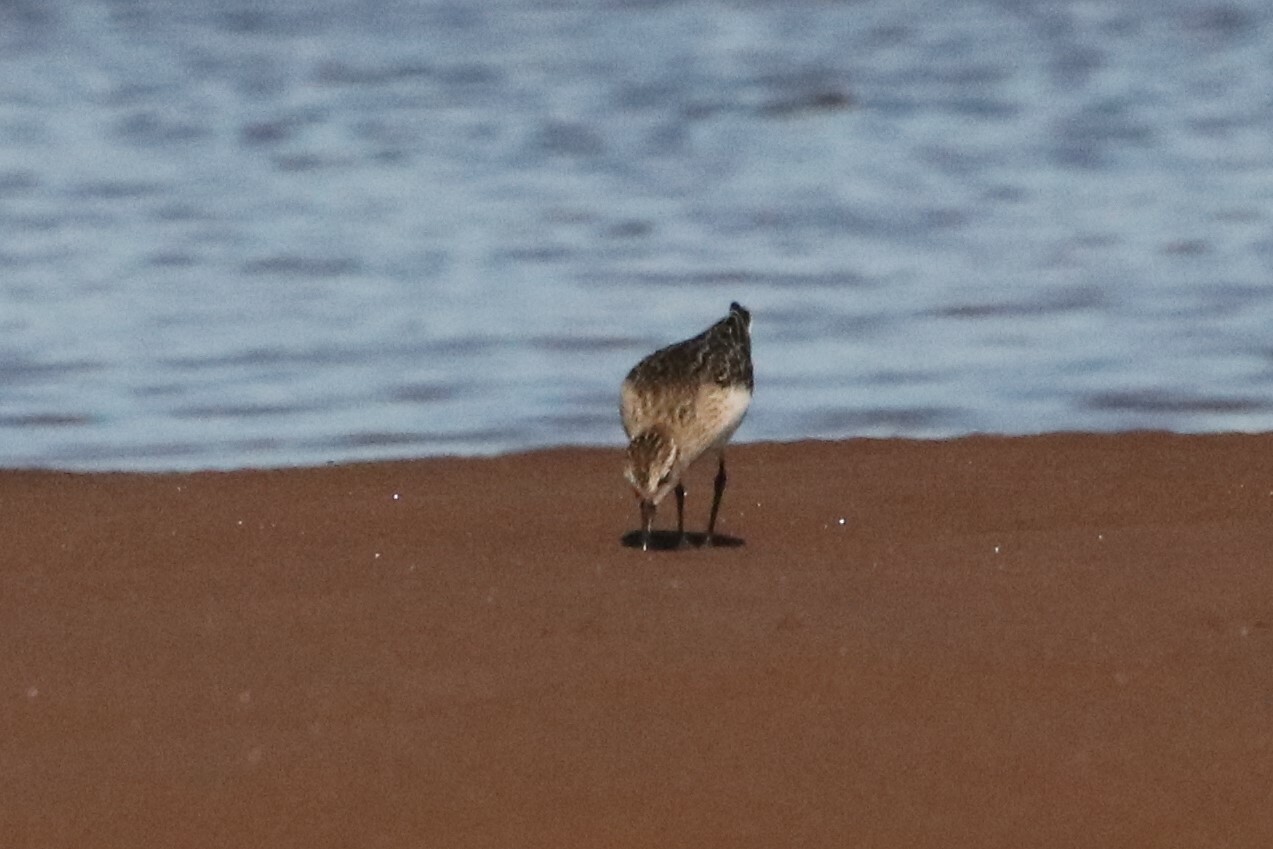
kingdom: Animalia
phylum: Chordata
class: Aves
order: Charadriiformes
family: Scolopacidae
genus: Calidris
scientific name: Calidris bairdii
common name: Baird's sandpiper
